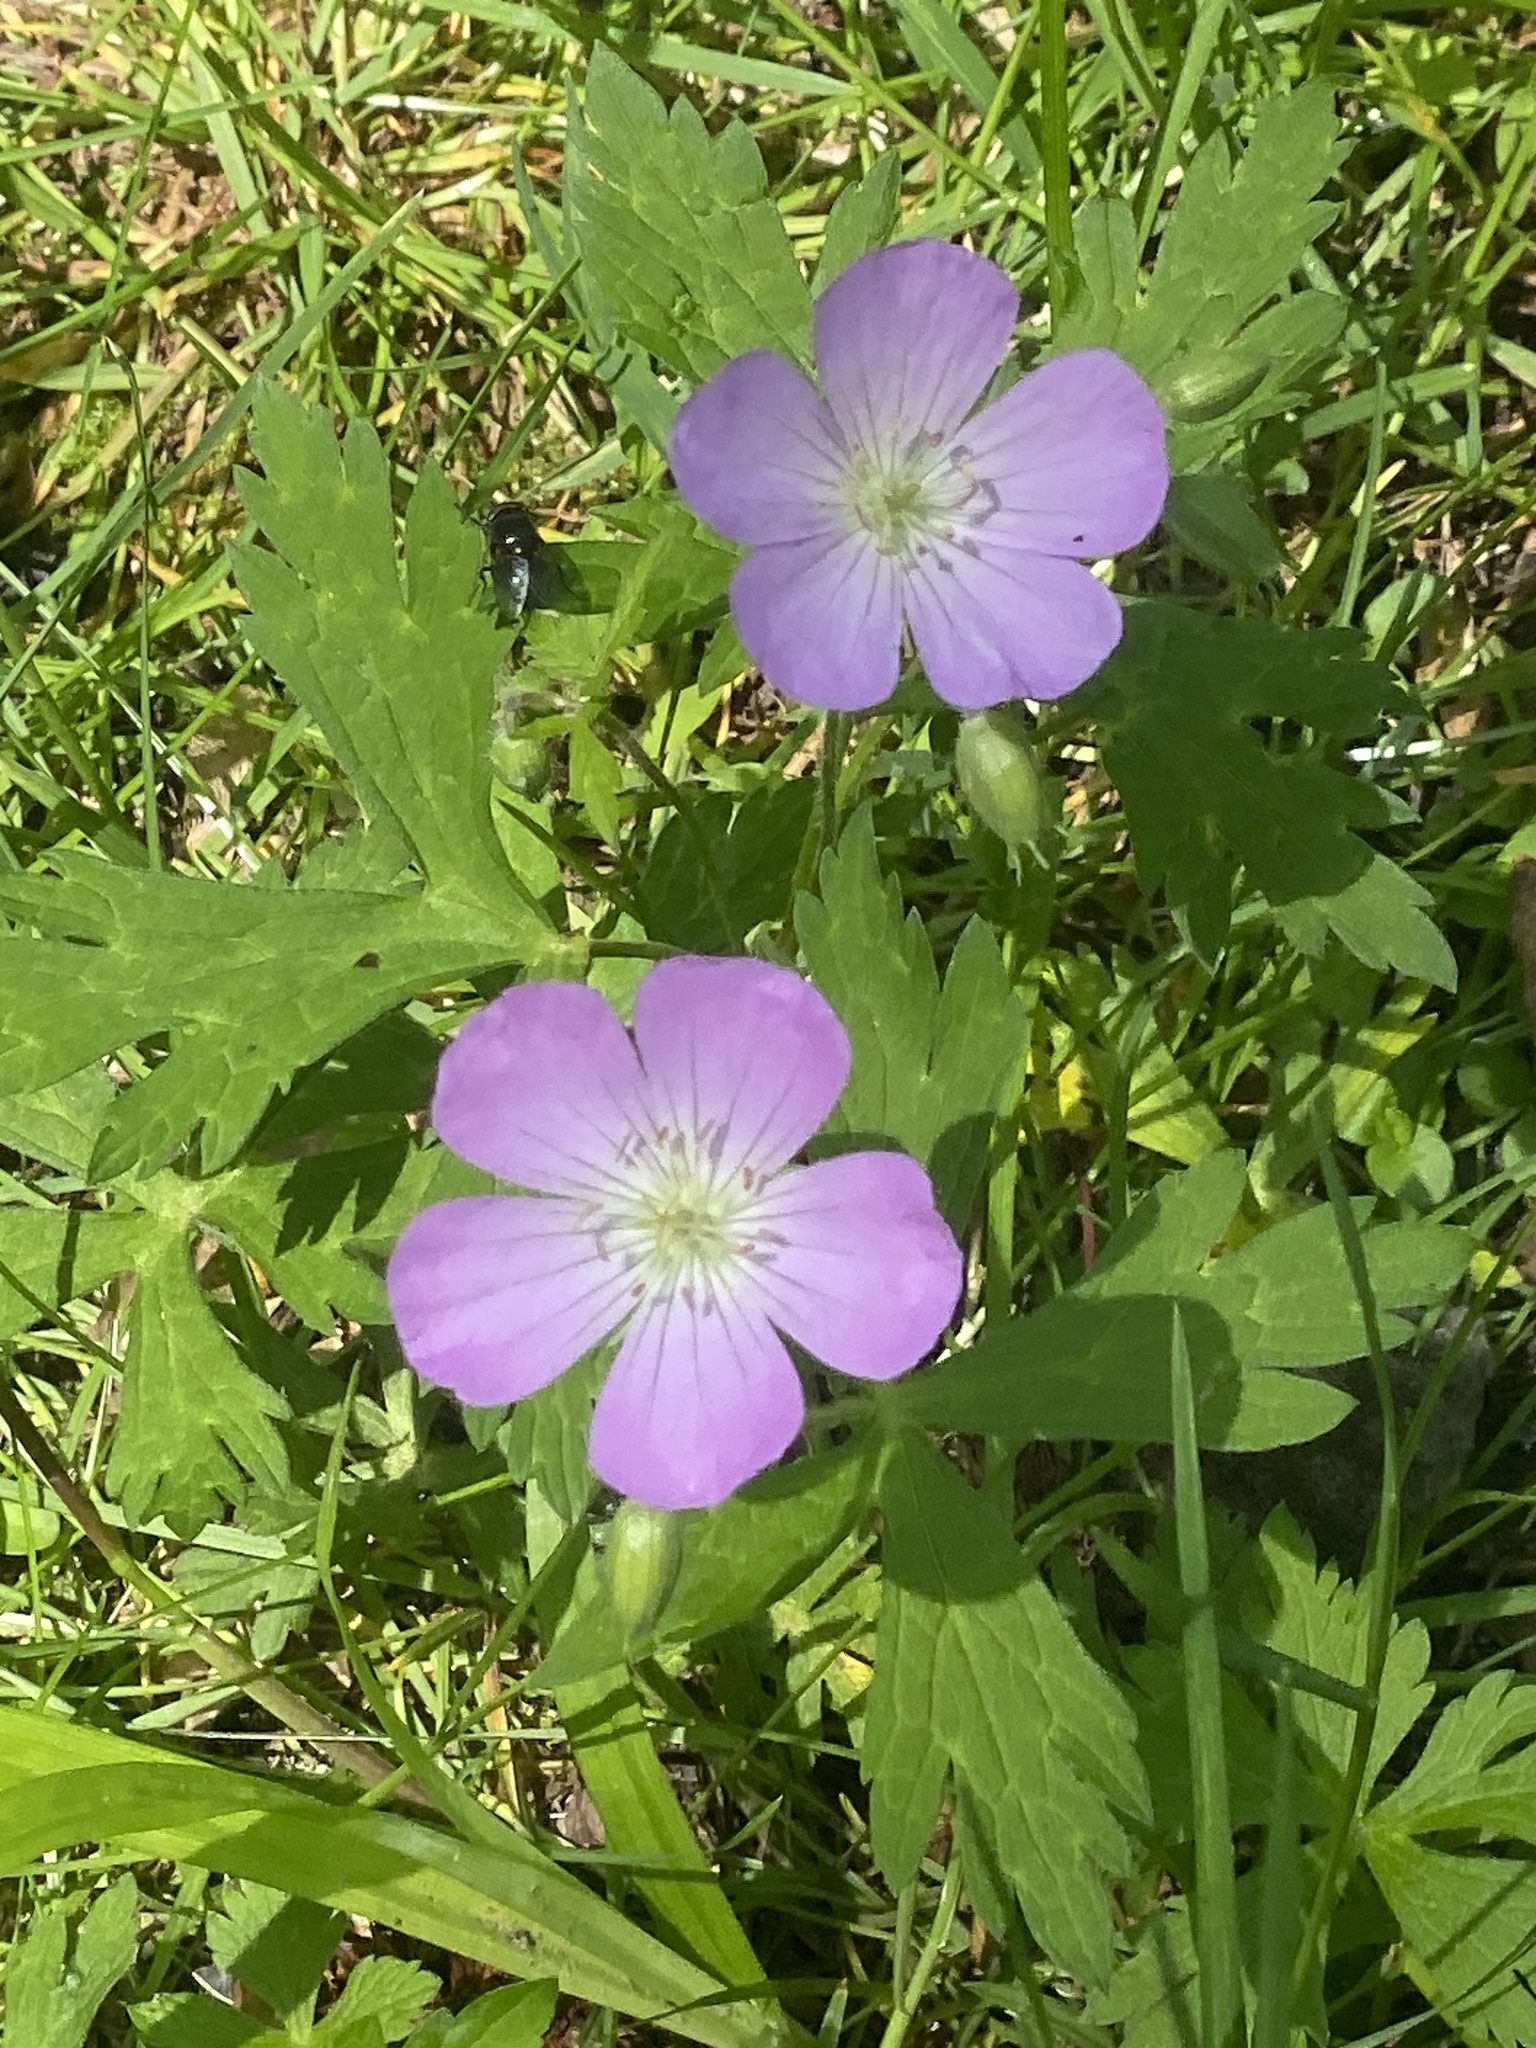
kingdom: Plantae
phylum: Tracheophyta
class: Magnoliopsida
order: Geraniales
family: Geraniaceae
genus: Geranium
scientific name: Geranium maculatum
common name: Spotted geranium
